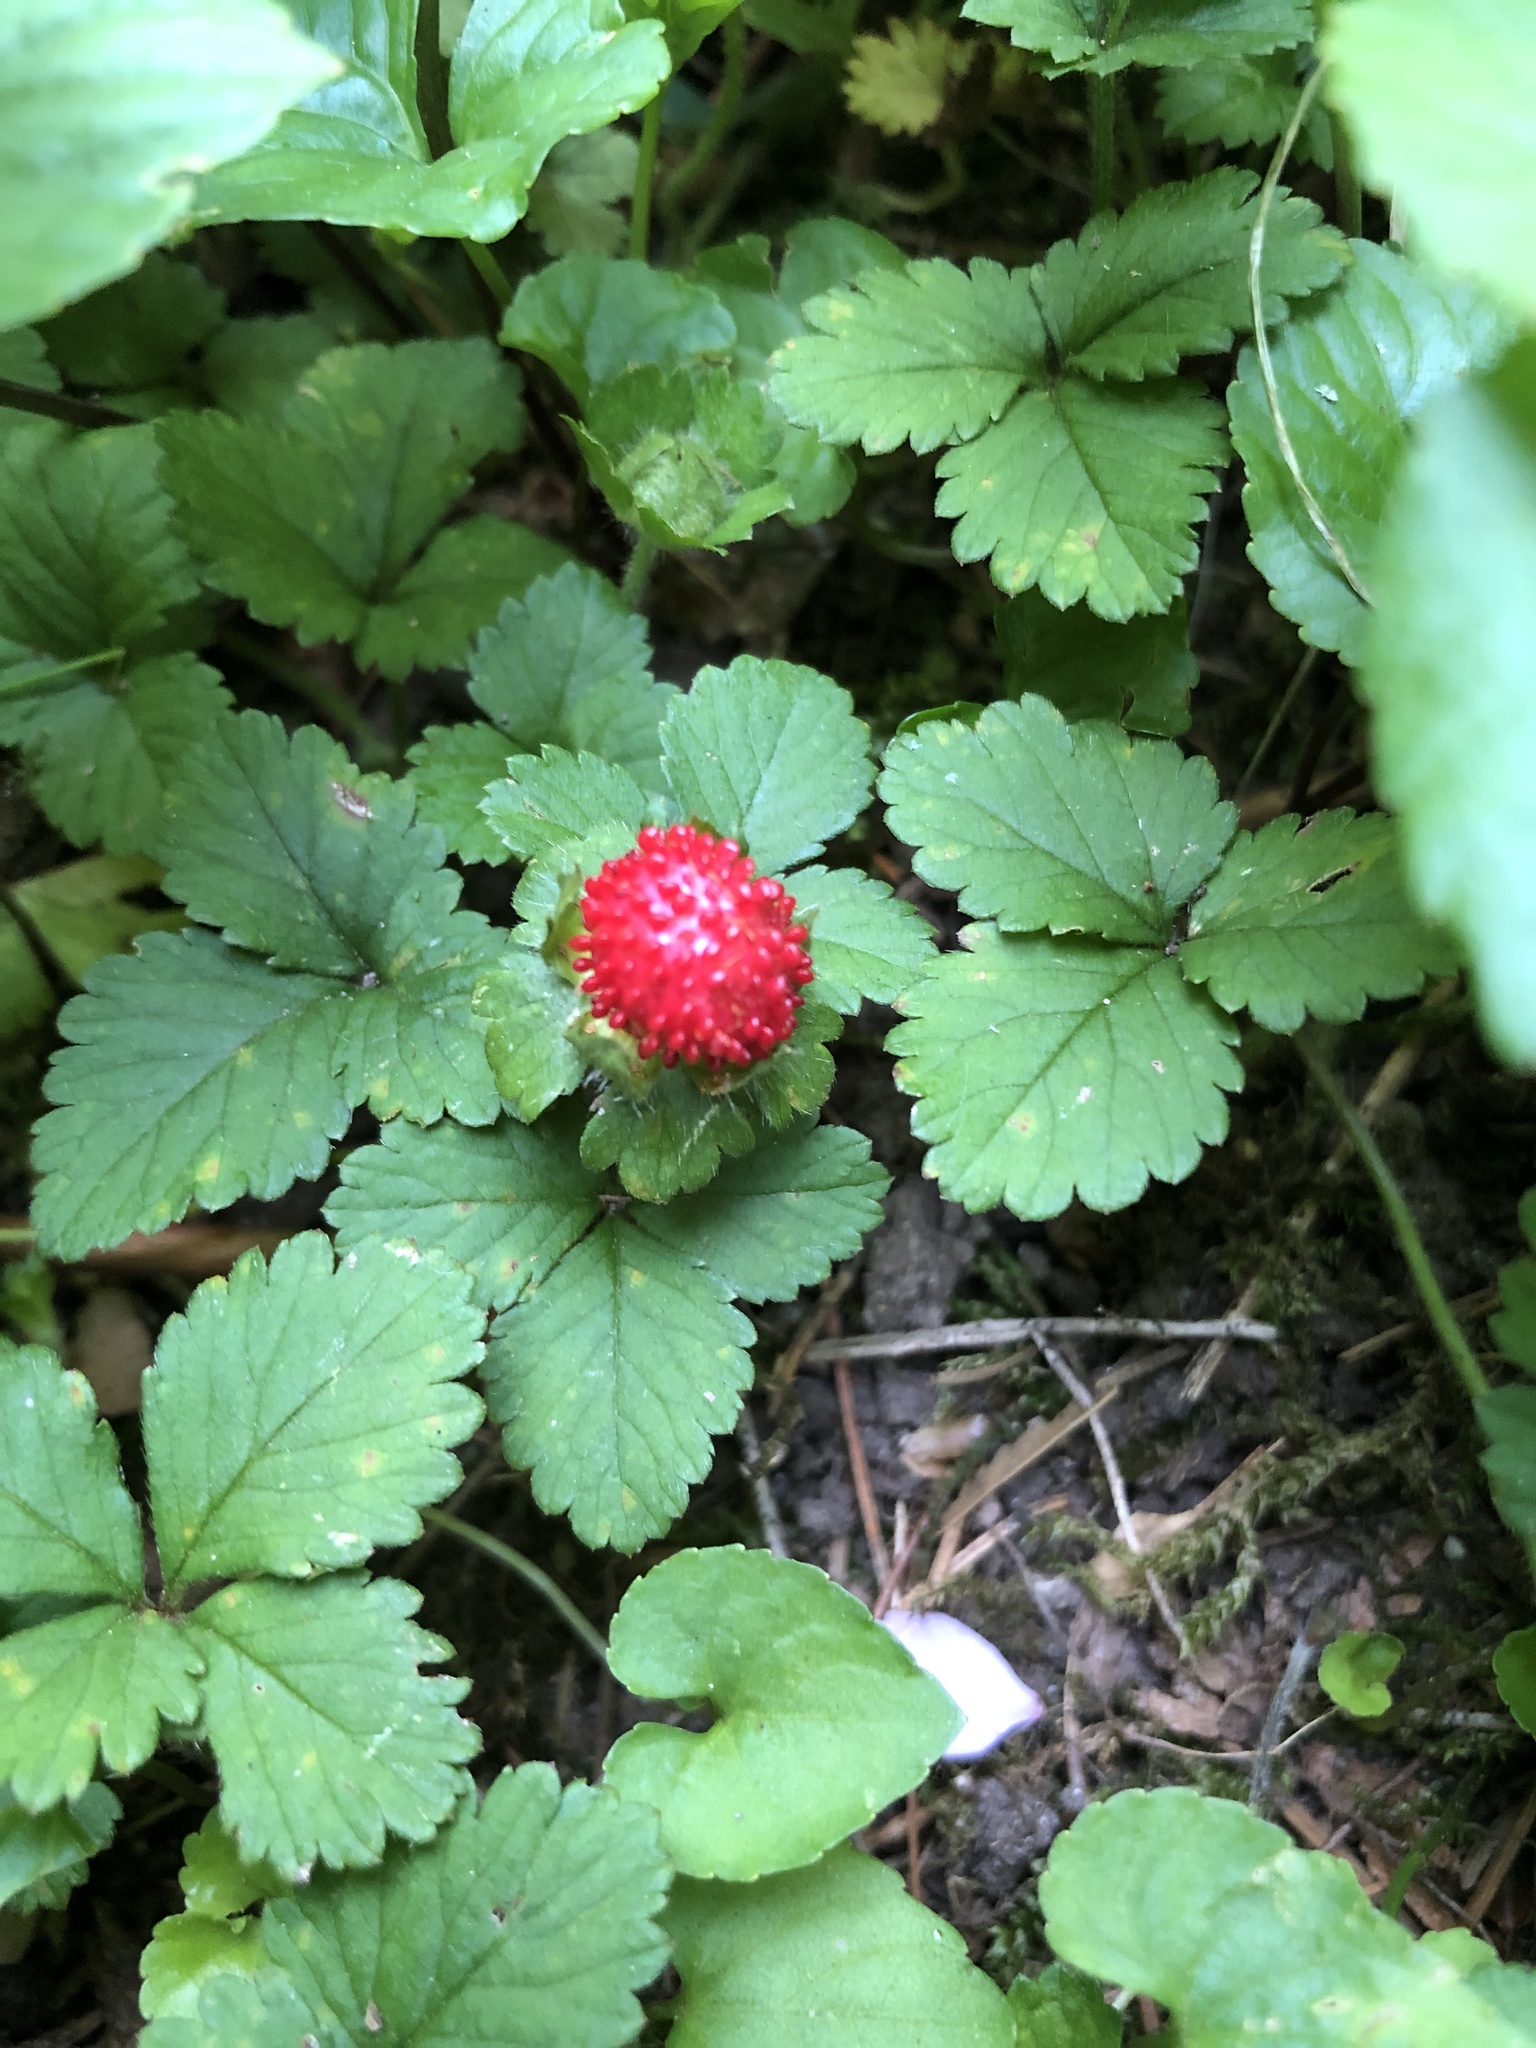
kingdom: Plantae
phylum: Tracheophyta
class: Magnoliopsida
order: Rosales
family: Rosaceae
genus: Potentilla
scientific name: Potentilla indica
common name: Yellow-flowered strawberry
